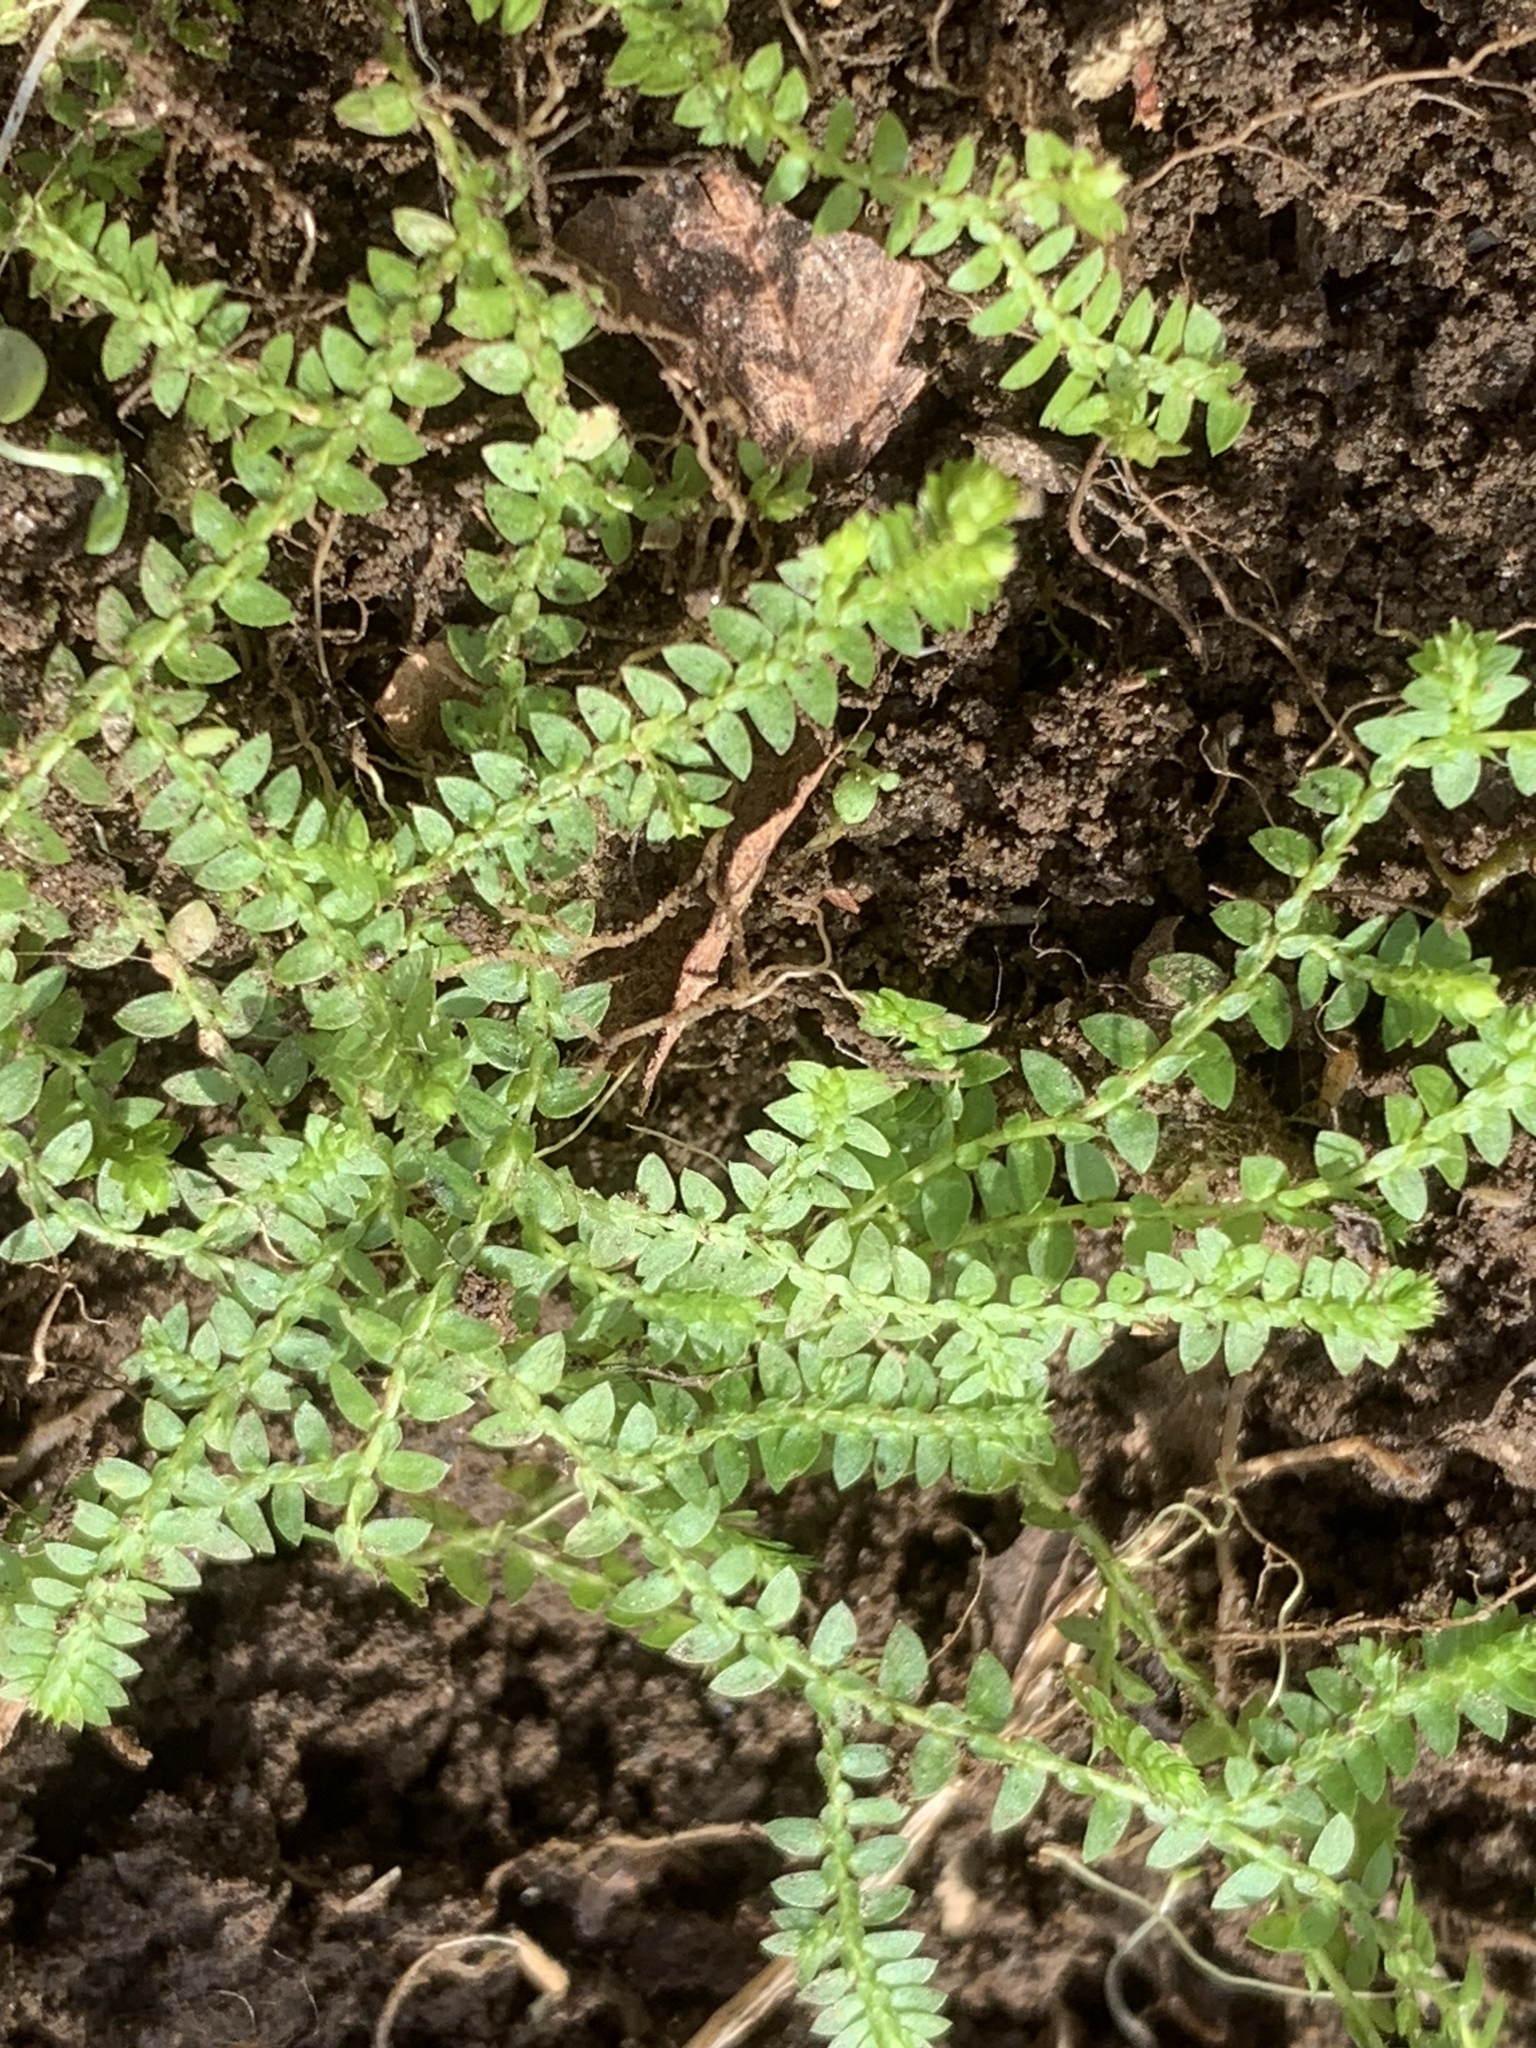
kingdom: Plantae
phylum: Tracheophyta
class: Lycopodiopsida
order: Selaginellales
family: Selaginellaceae
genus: Selaginella
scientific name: Selaginella apoda
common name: Creeping spikemoss
